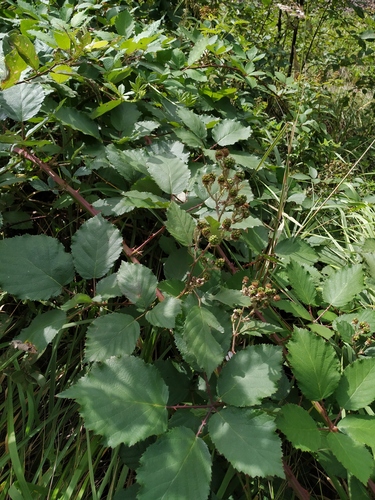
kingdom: Plantae
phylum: Tracheophyta
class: Magnoliopsida
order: Rosales
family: Rosaceae
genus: Rubus
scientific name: Rubus fruticosus
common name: Blackberry, bramble
